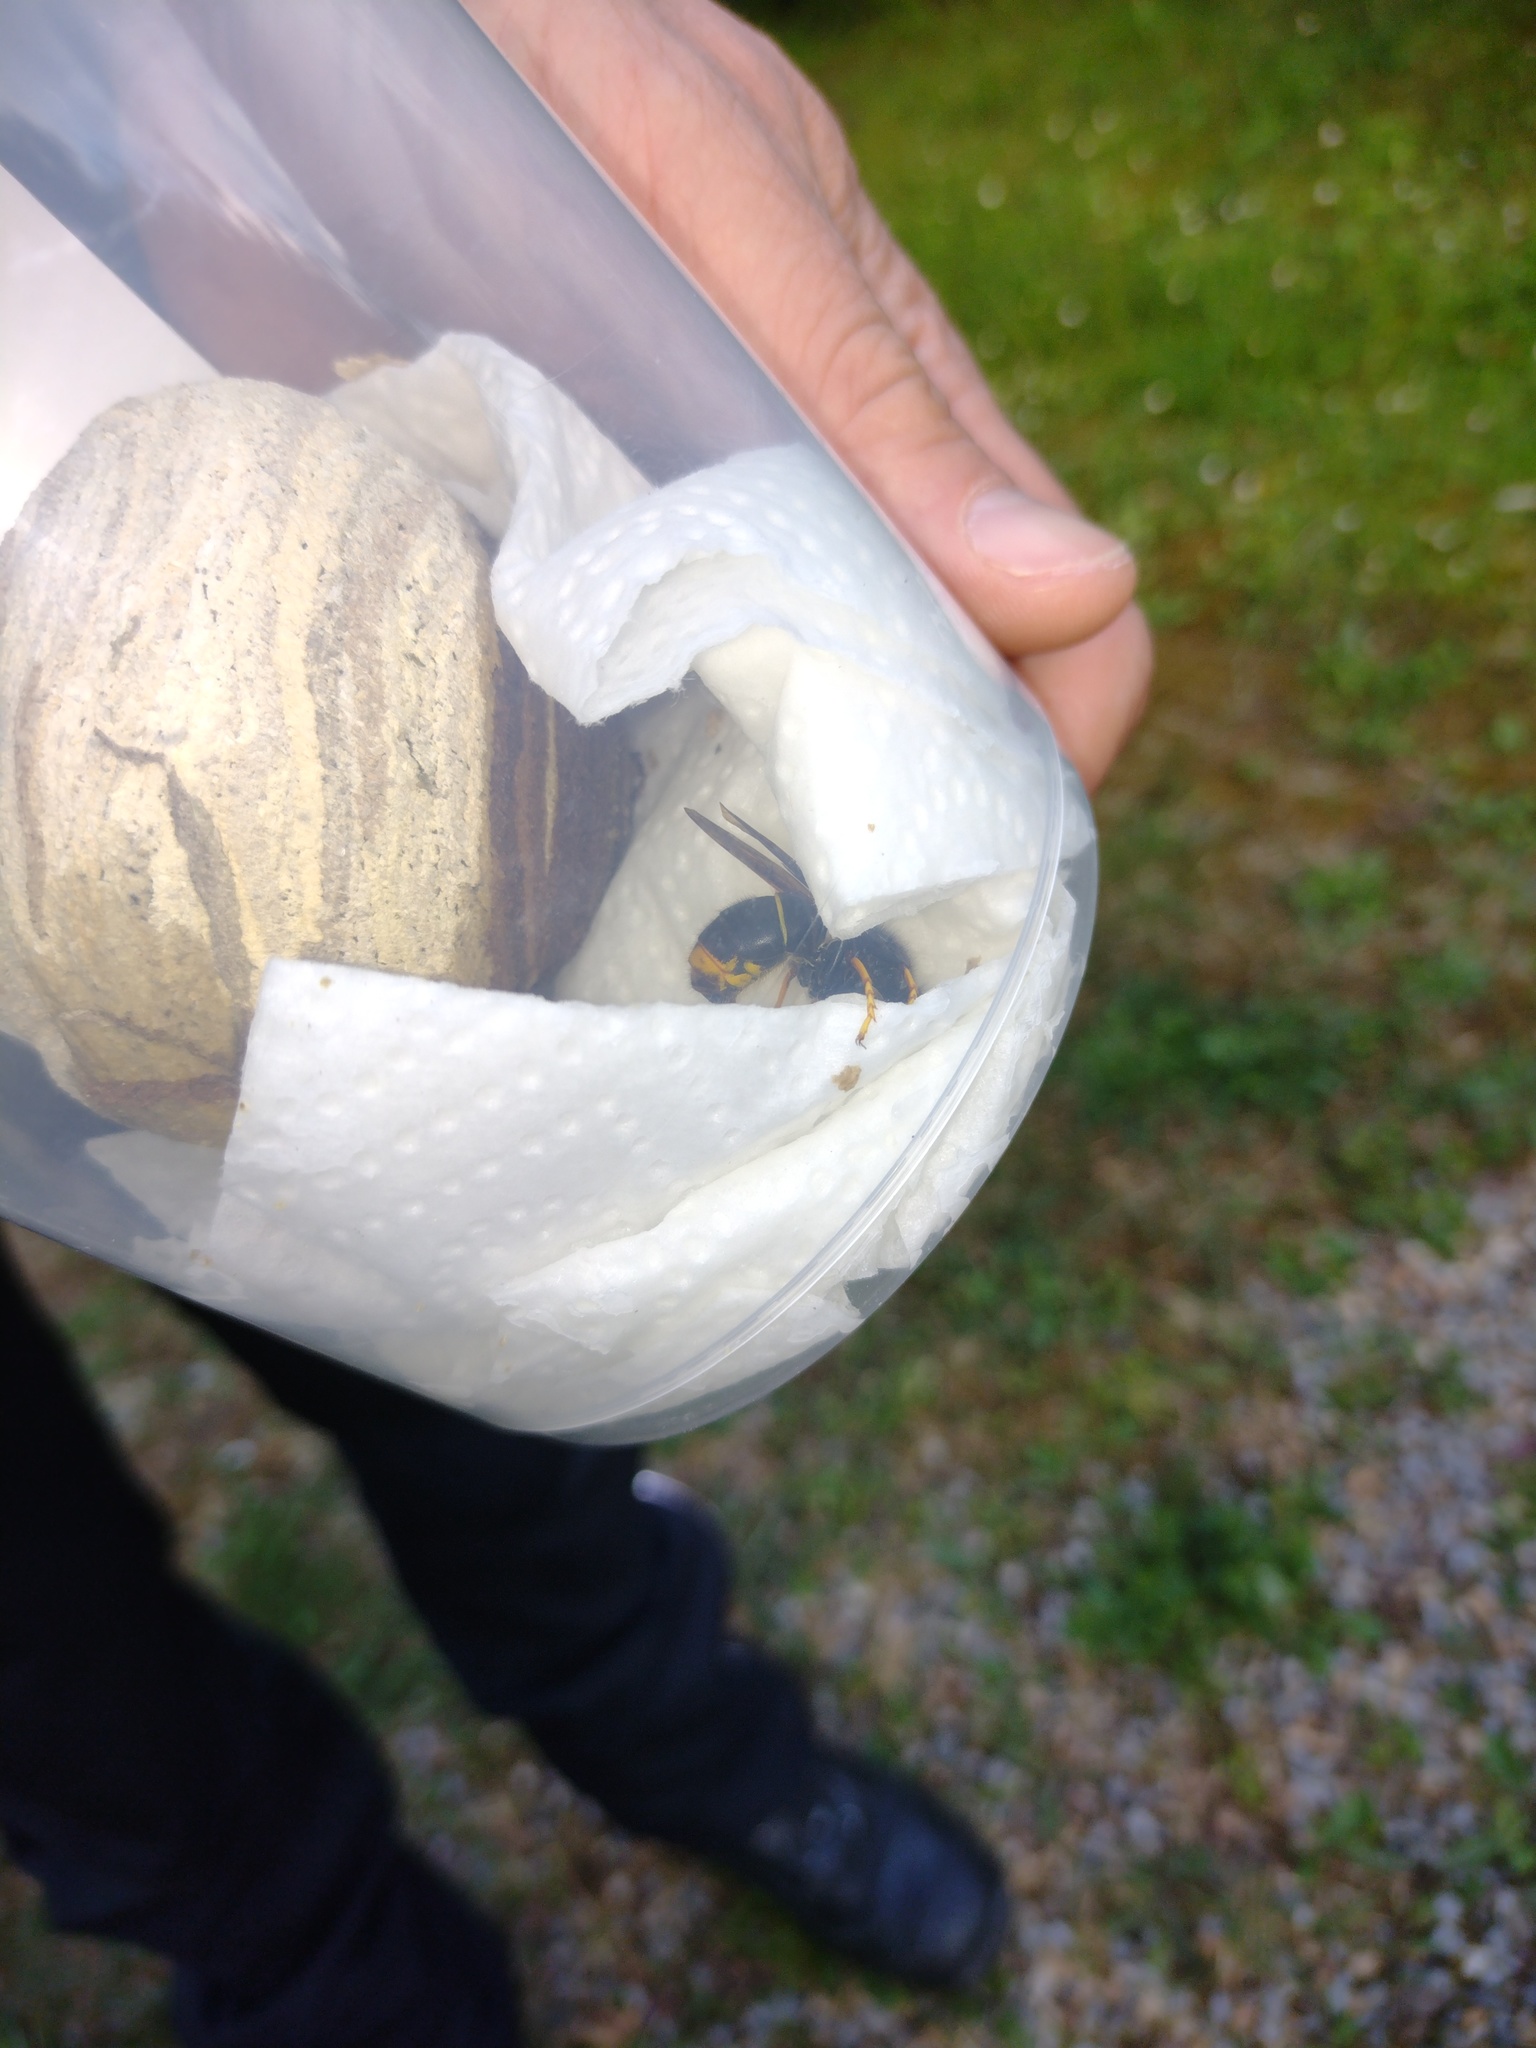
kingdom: Animalia
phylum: Arthropoda
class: Insecta
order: Hymenoptera
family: Vespidae
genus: Vespa
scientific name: Vespa velutina
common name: Asian hornet
